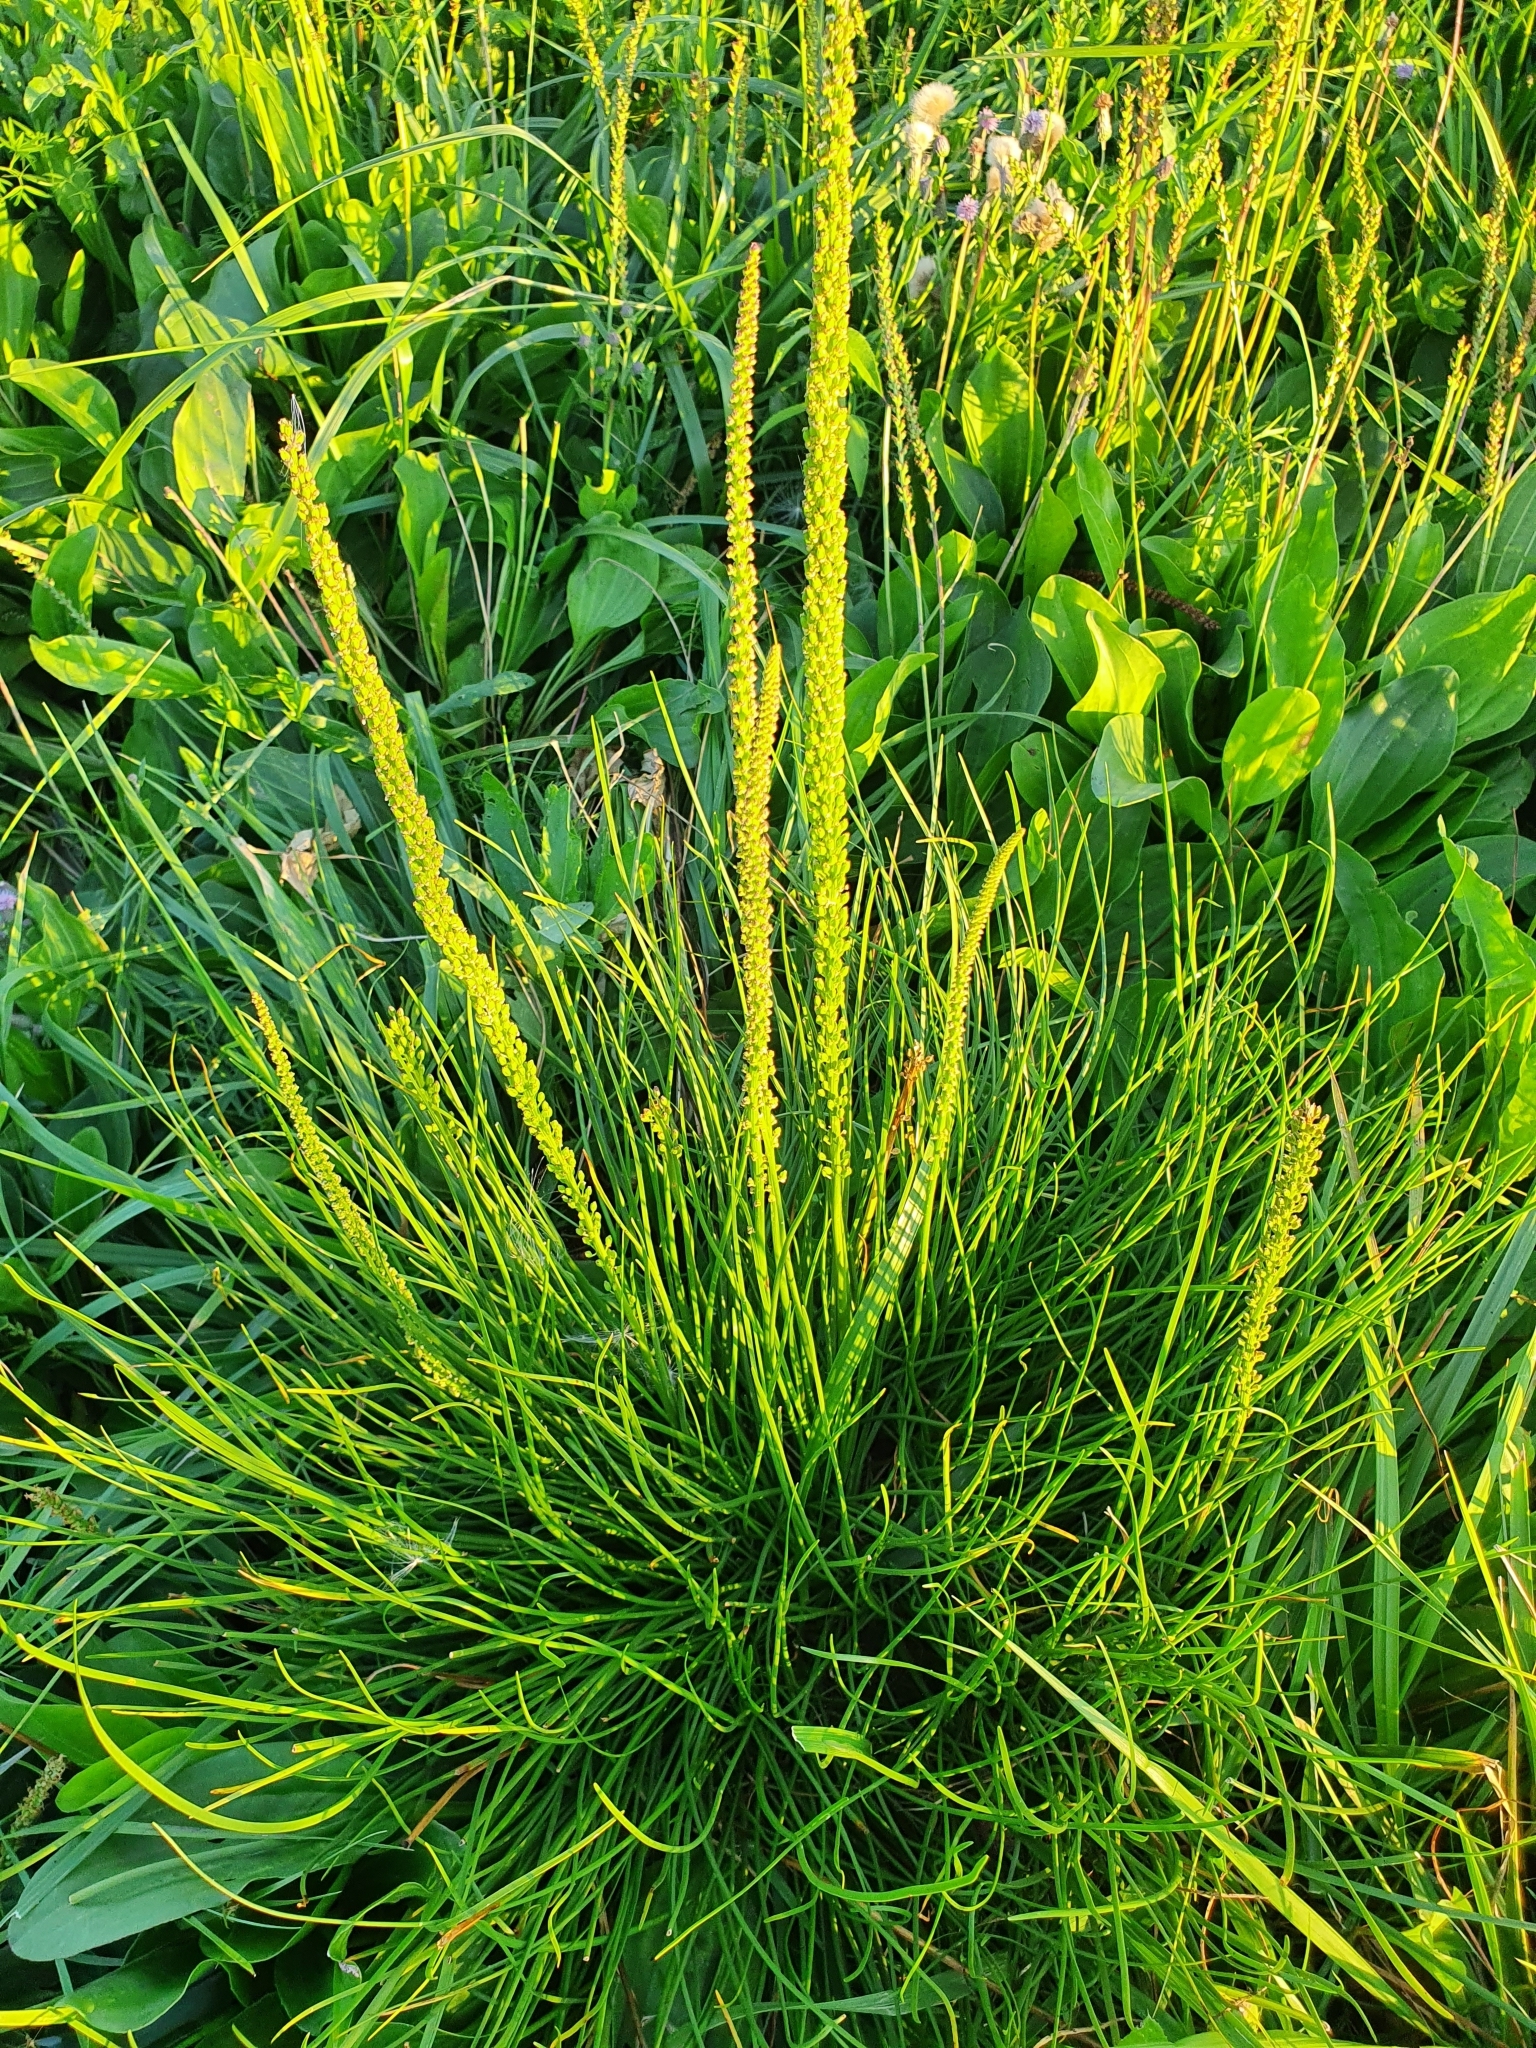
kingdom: Plantae
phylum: Tracheophyta
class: Liliopsida
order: Alismatales
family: Juncaginaceae
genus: Triglochin
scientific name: Triglochin maritima
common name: Sea arrowgrass
